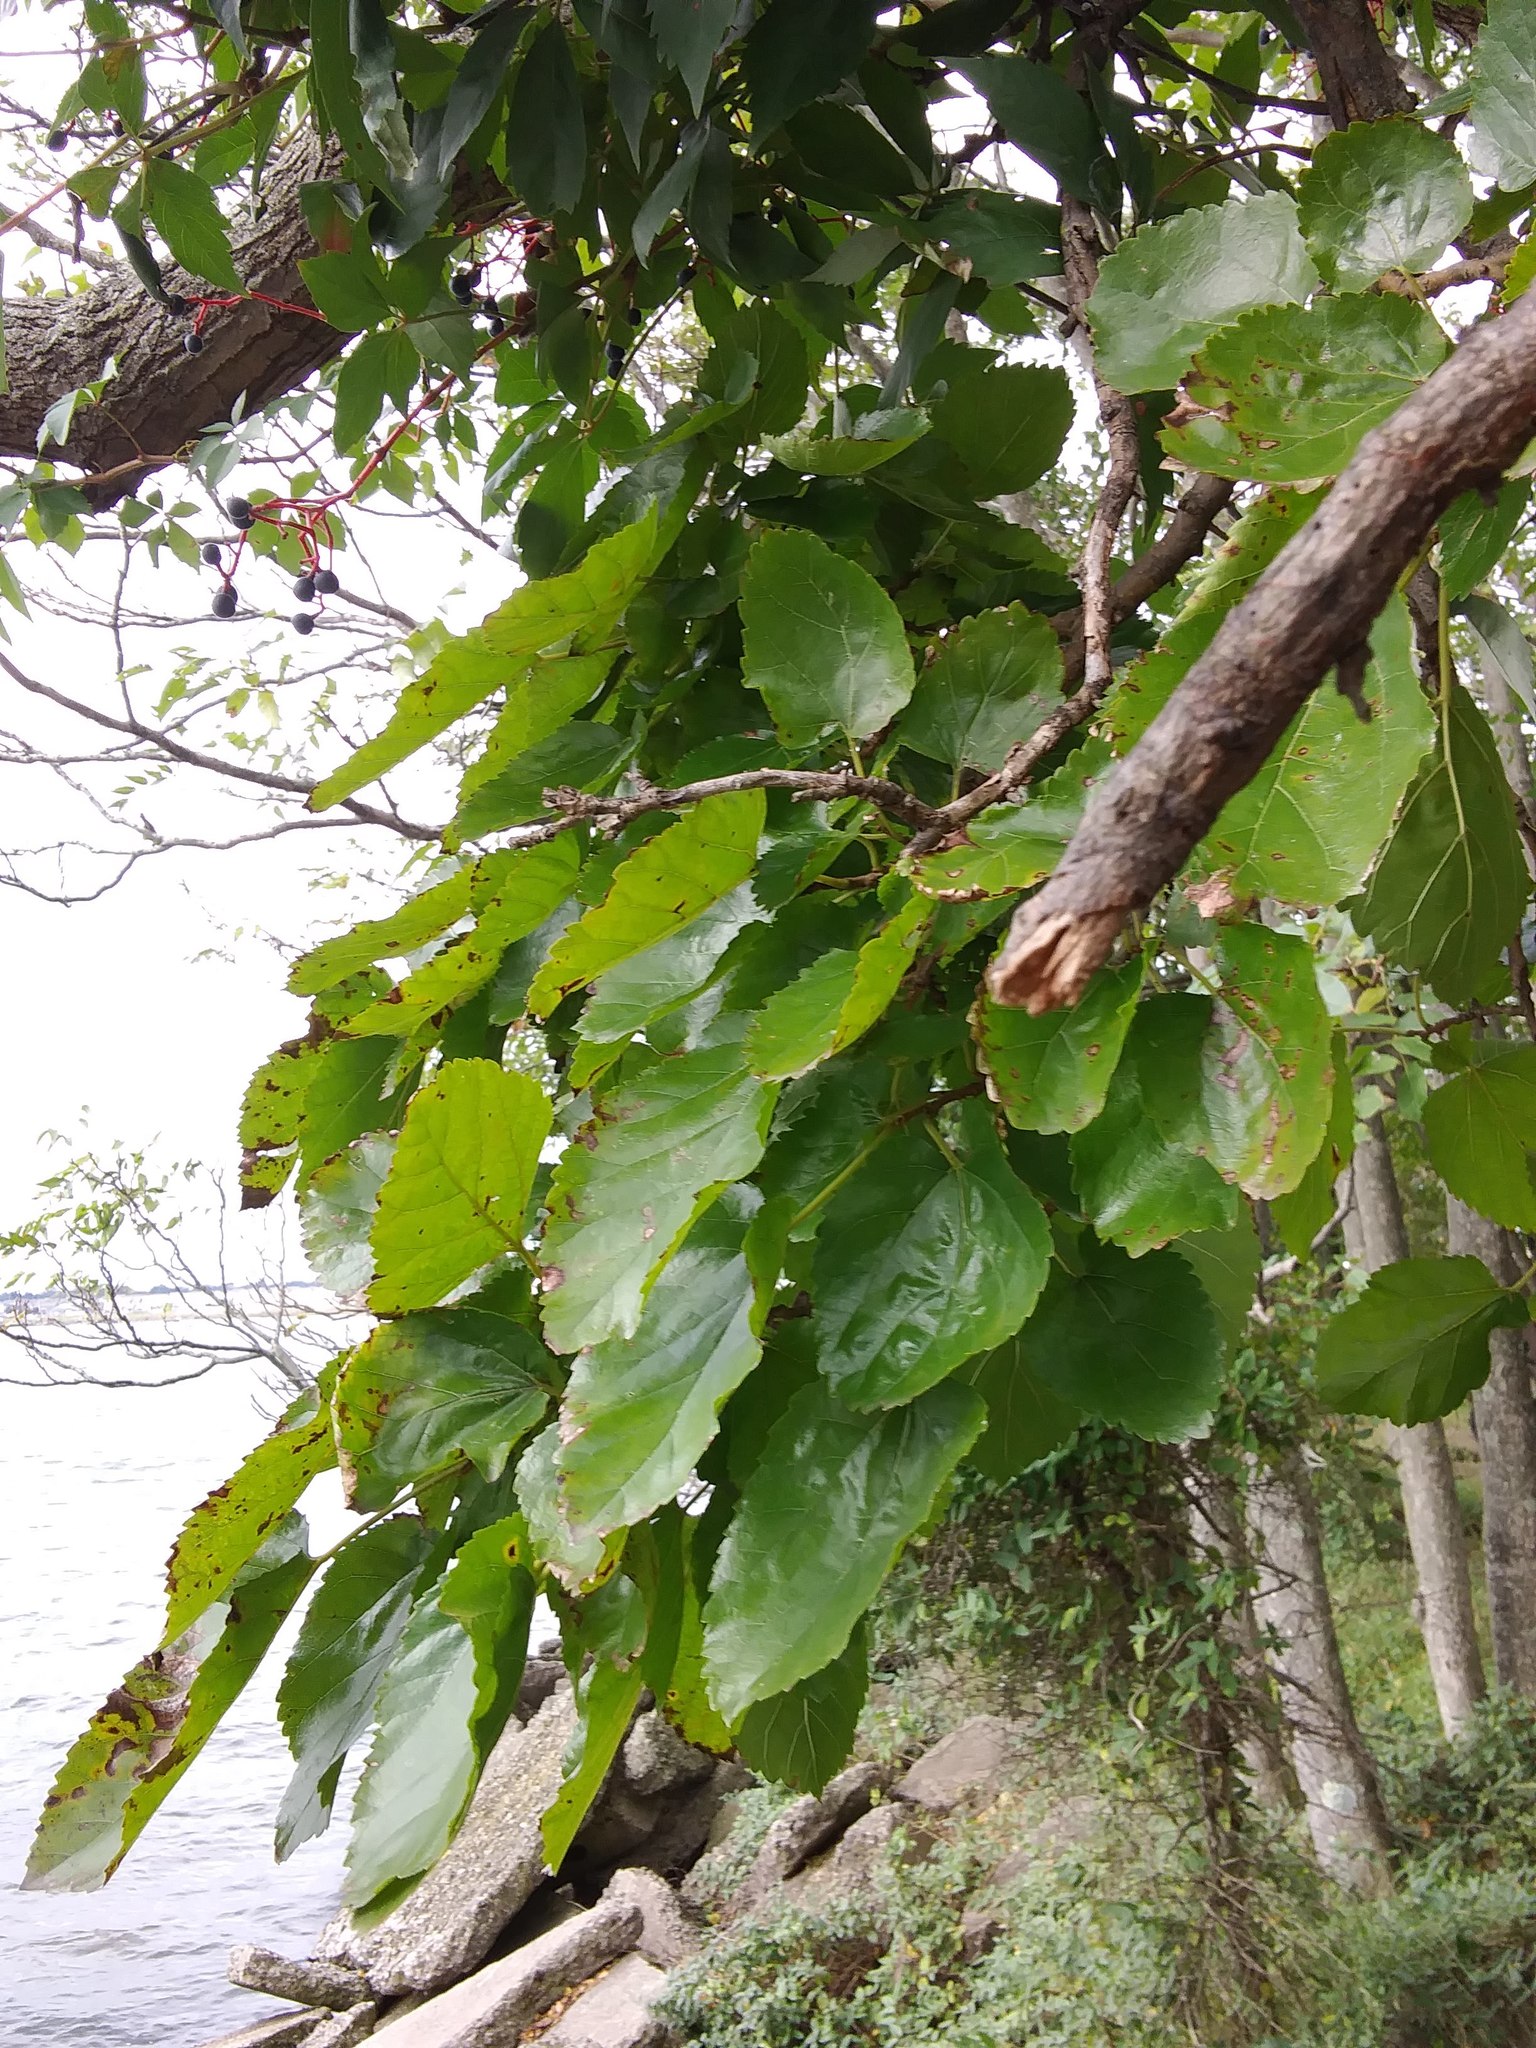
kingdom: Plantae
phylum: Tracheophyta
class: Magnoliopsida
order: Rosales
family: Moraceae
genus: Morus
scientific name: Morus alba
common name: White mulberry
